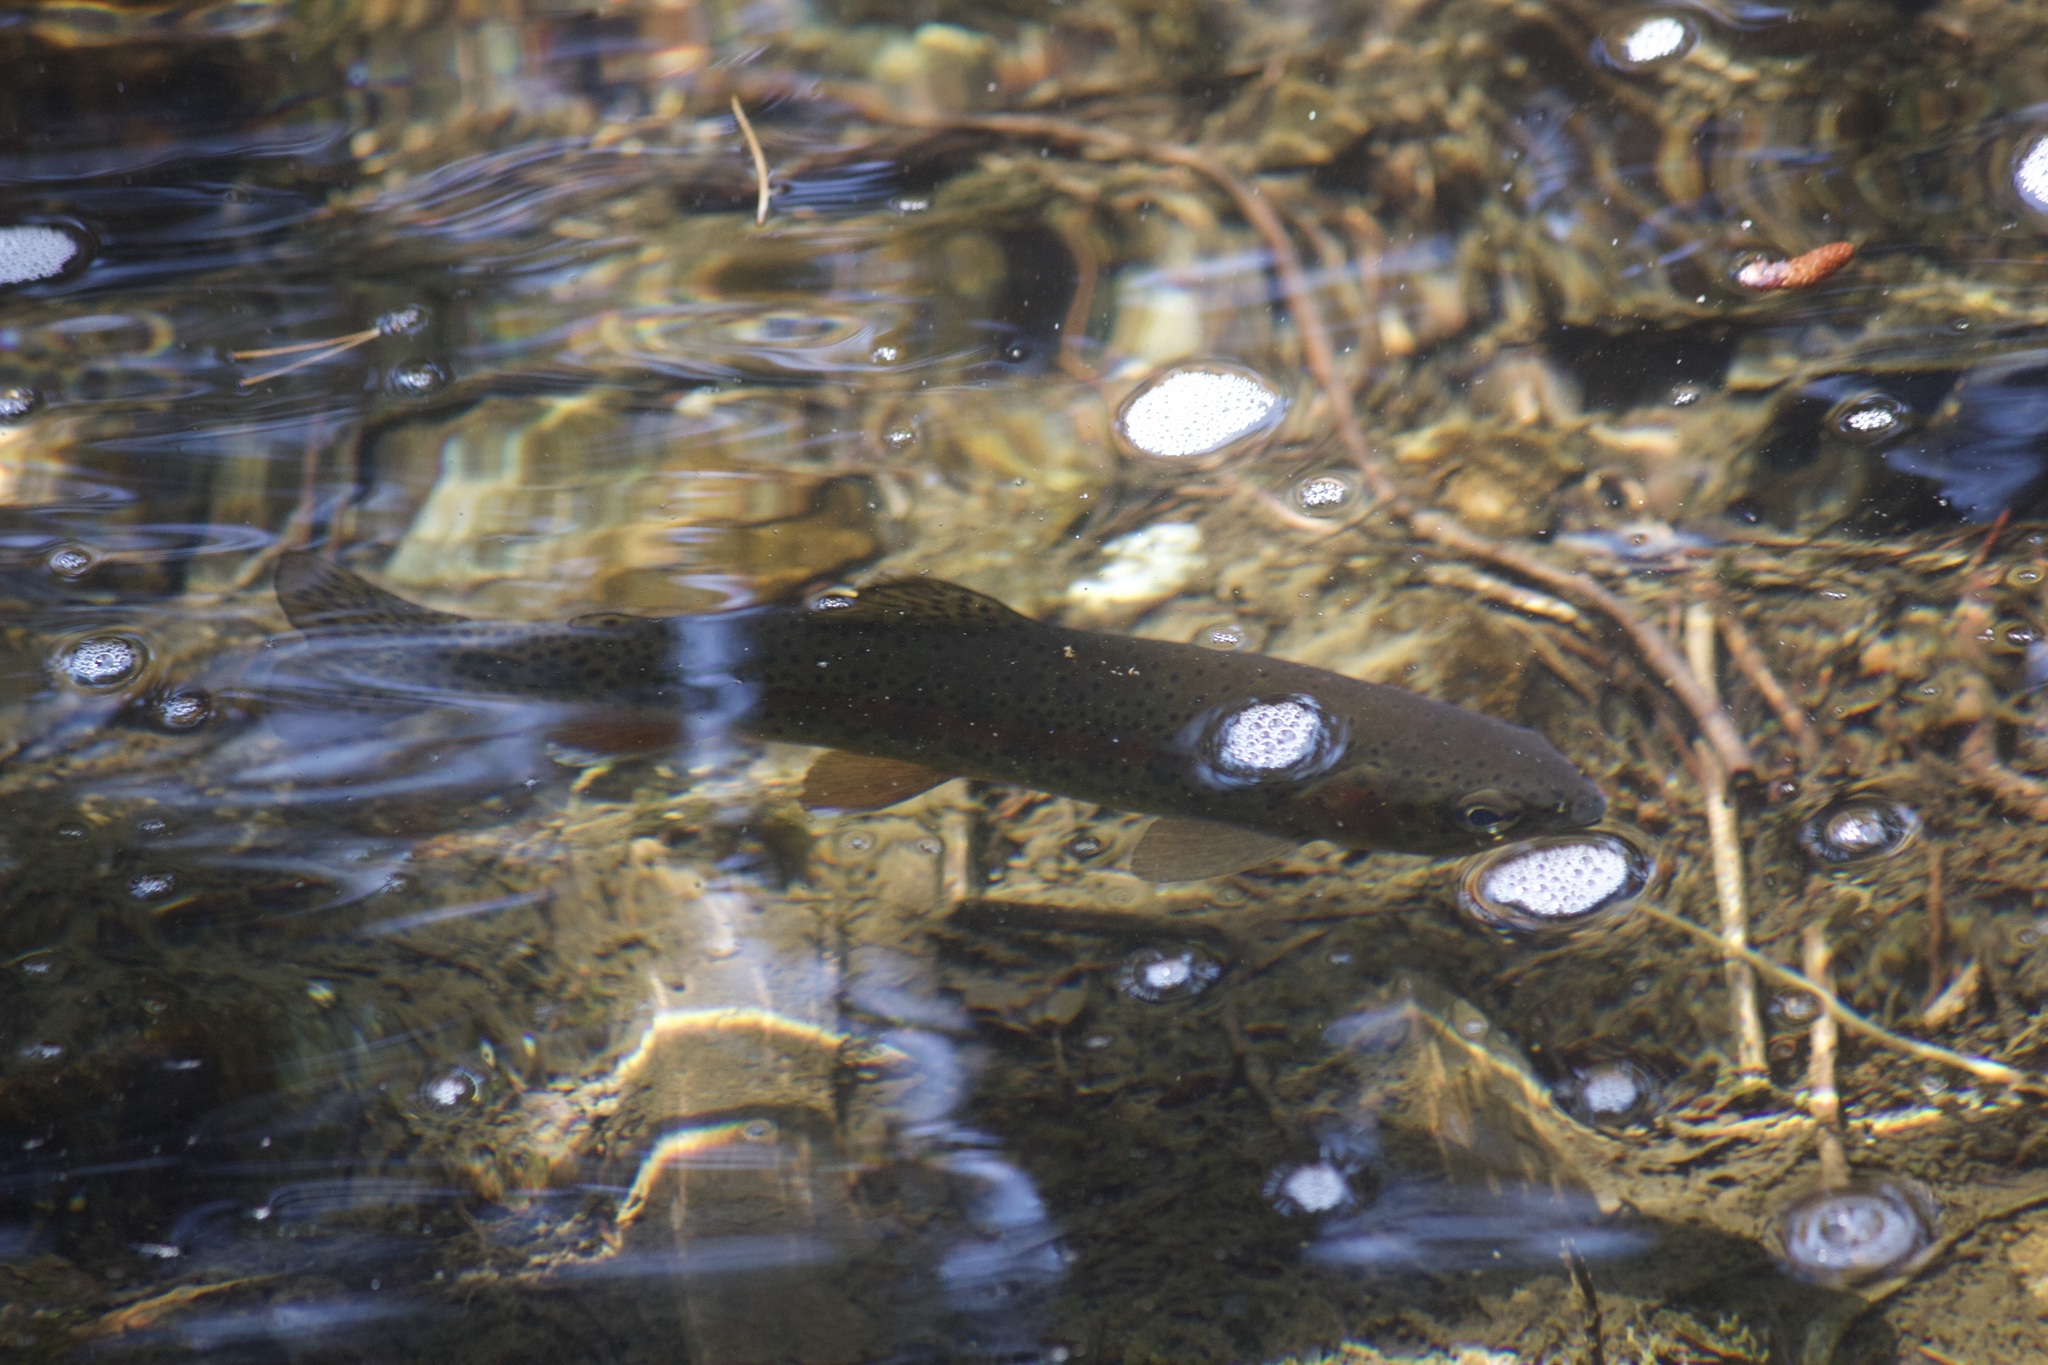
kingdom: Animalia
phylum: Chordata
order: Salmoniformes
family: Salmonidae
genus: Oncorhynchus
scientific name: Oncorhynchus mykiss
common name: Rainbow trout
